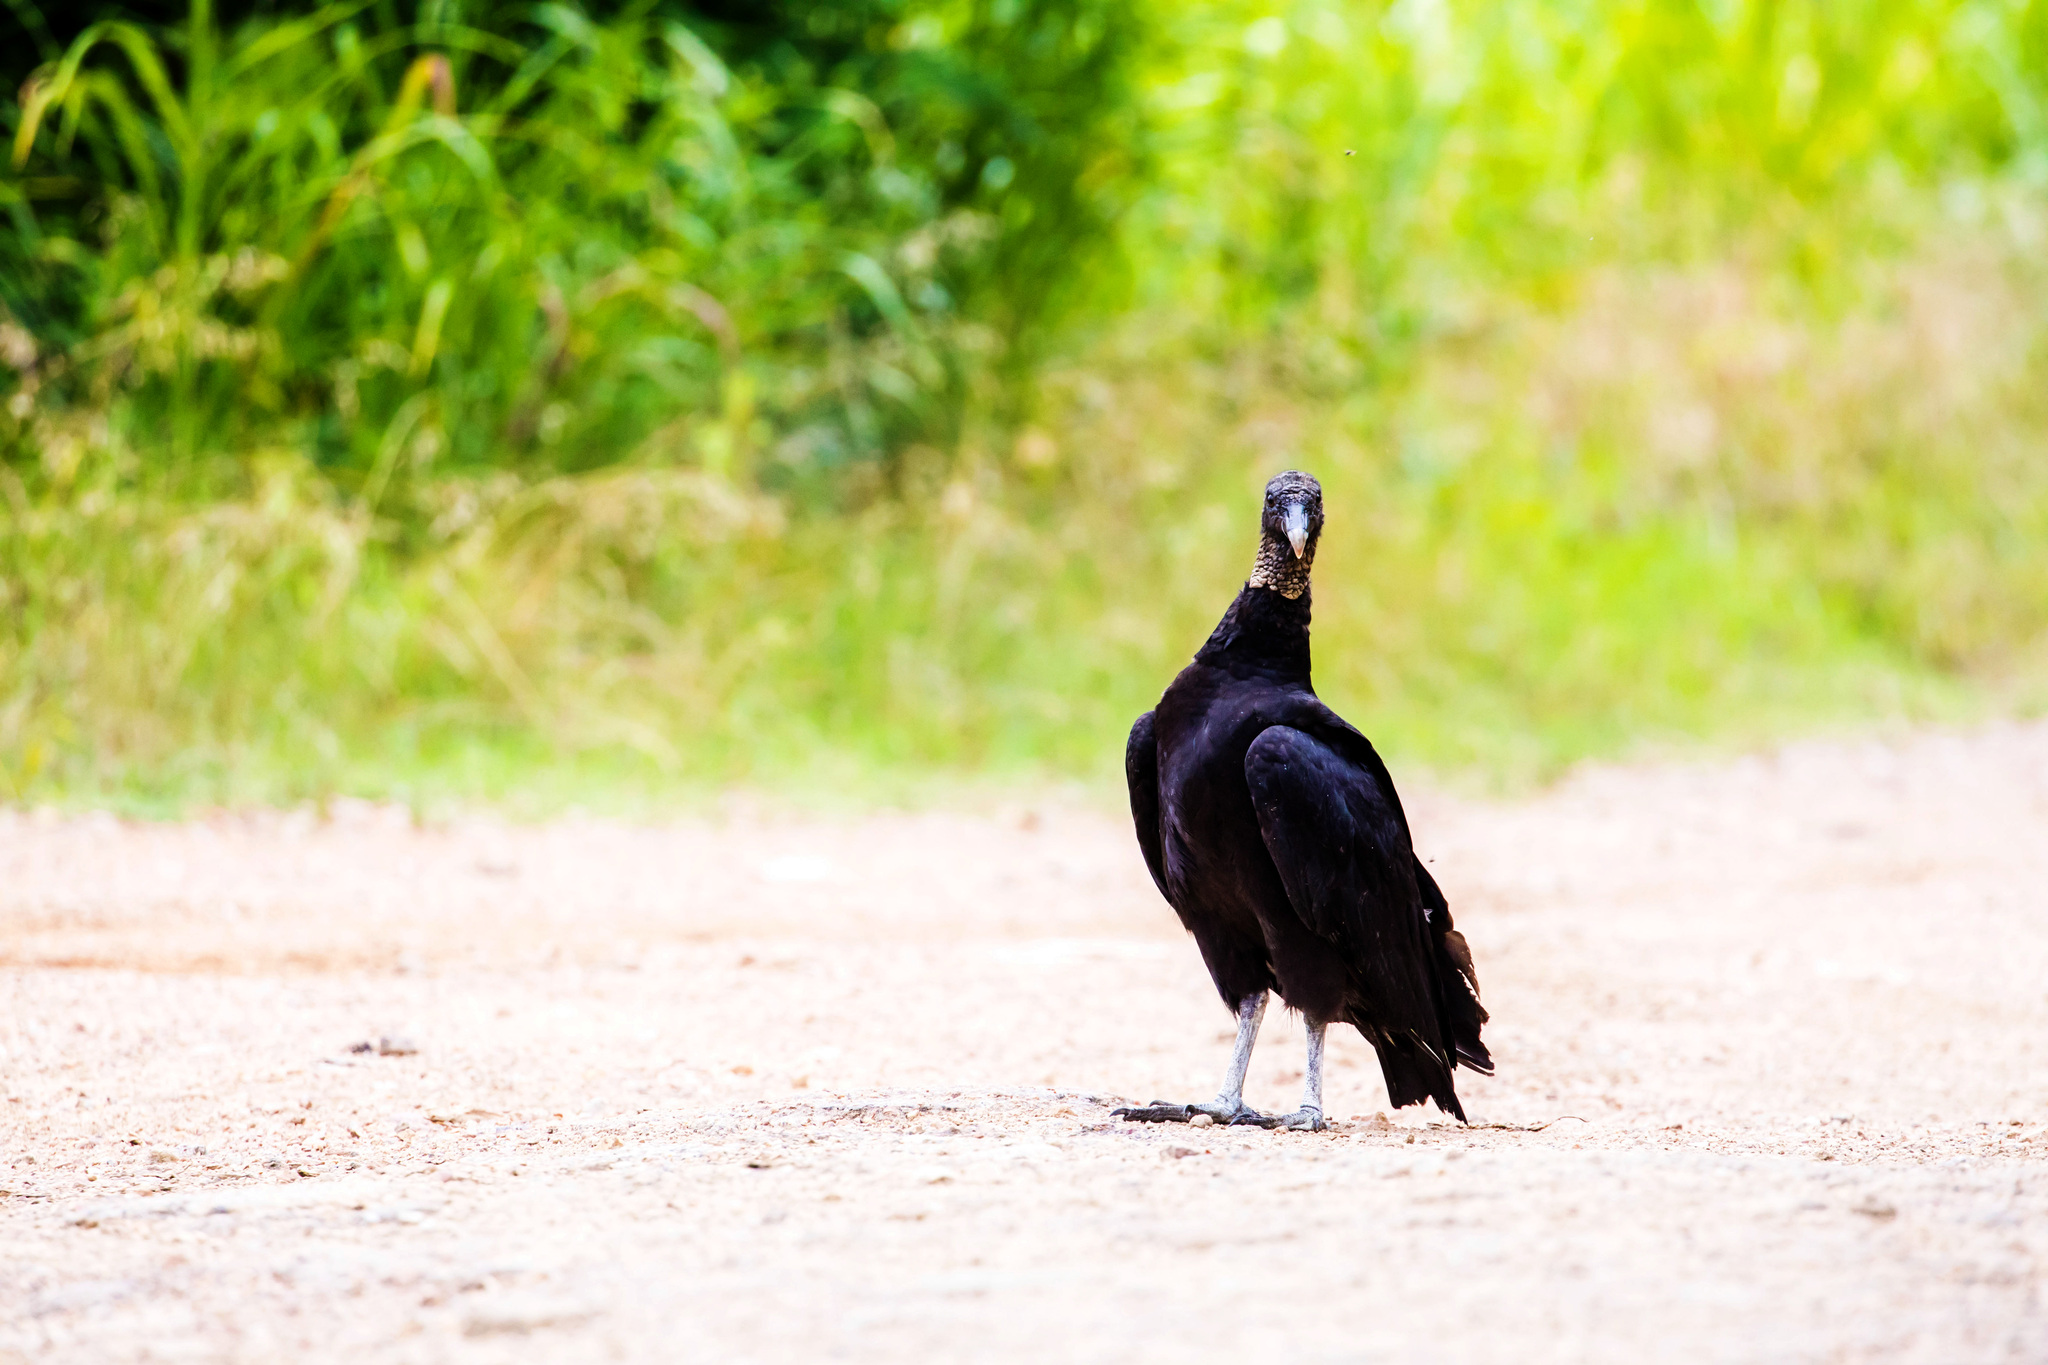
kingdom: Animalia
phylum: Chordata
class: Aves
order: Accipitriformes
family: Cathartidae
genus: Coragyps
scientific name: Coragyps atratus
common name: Black vulture
